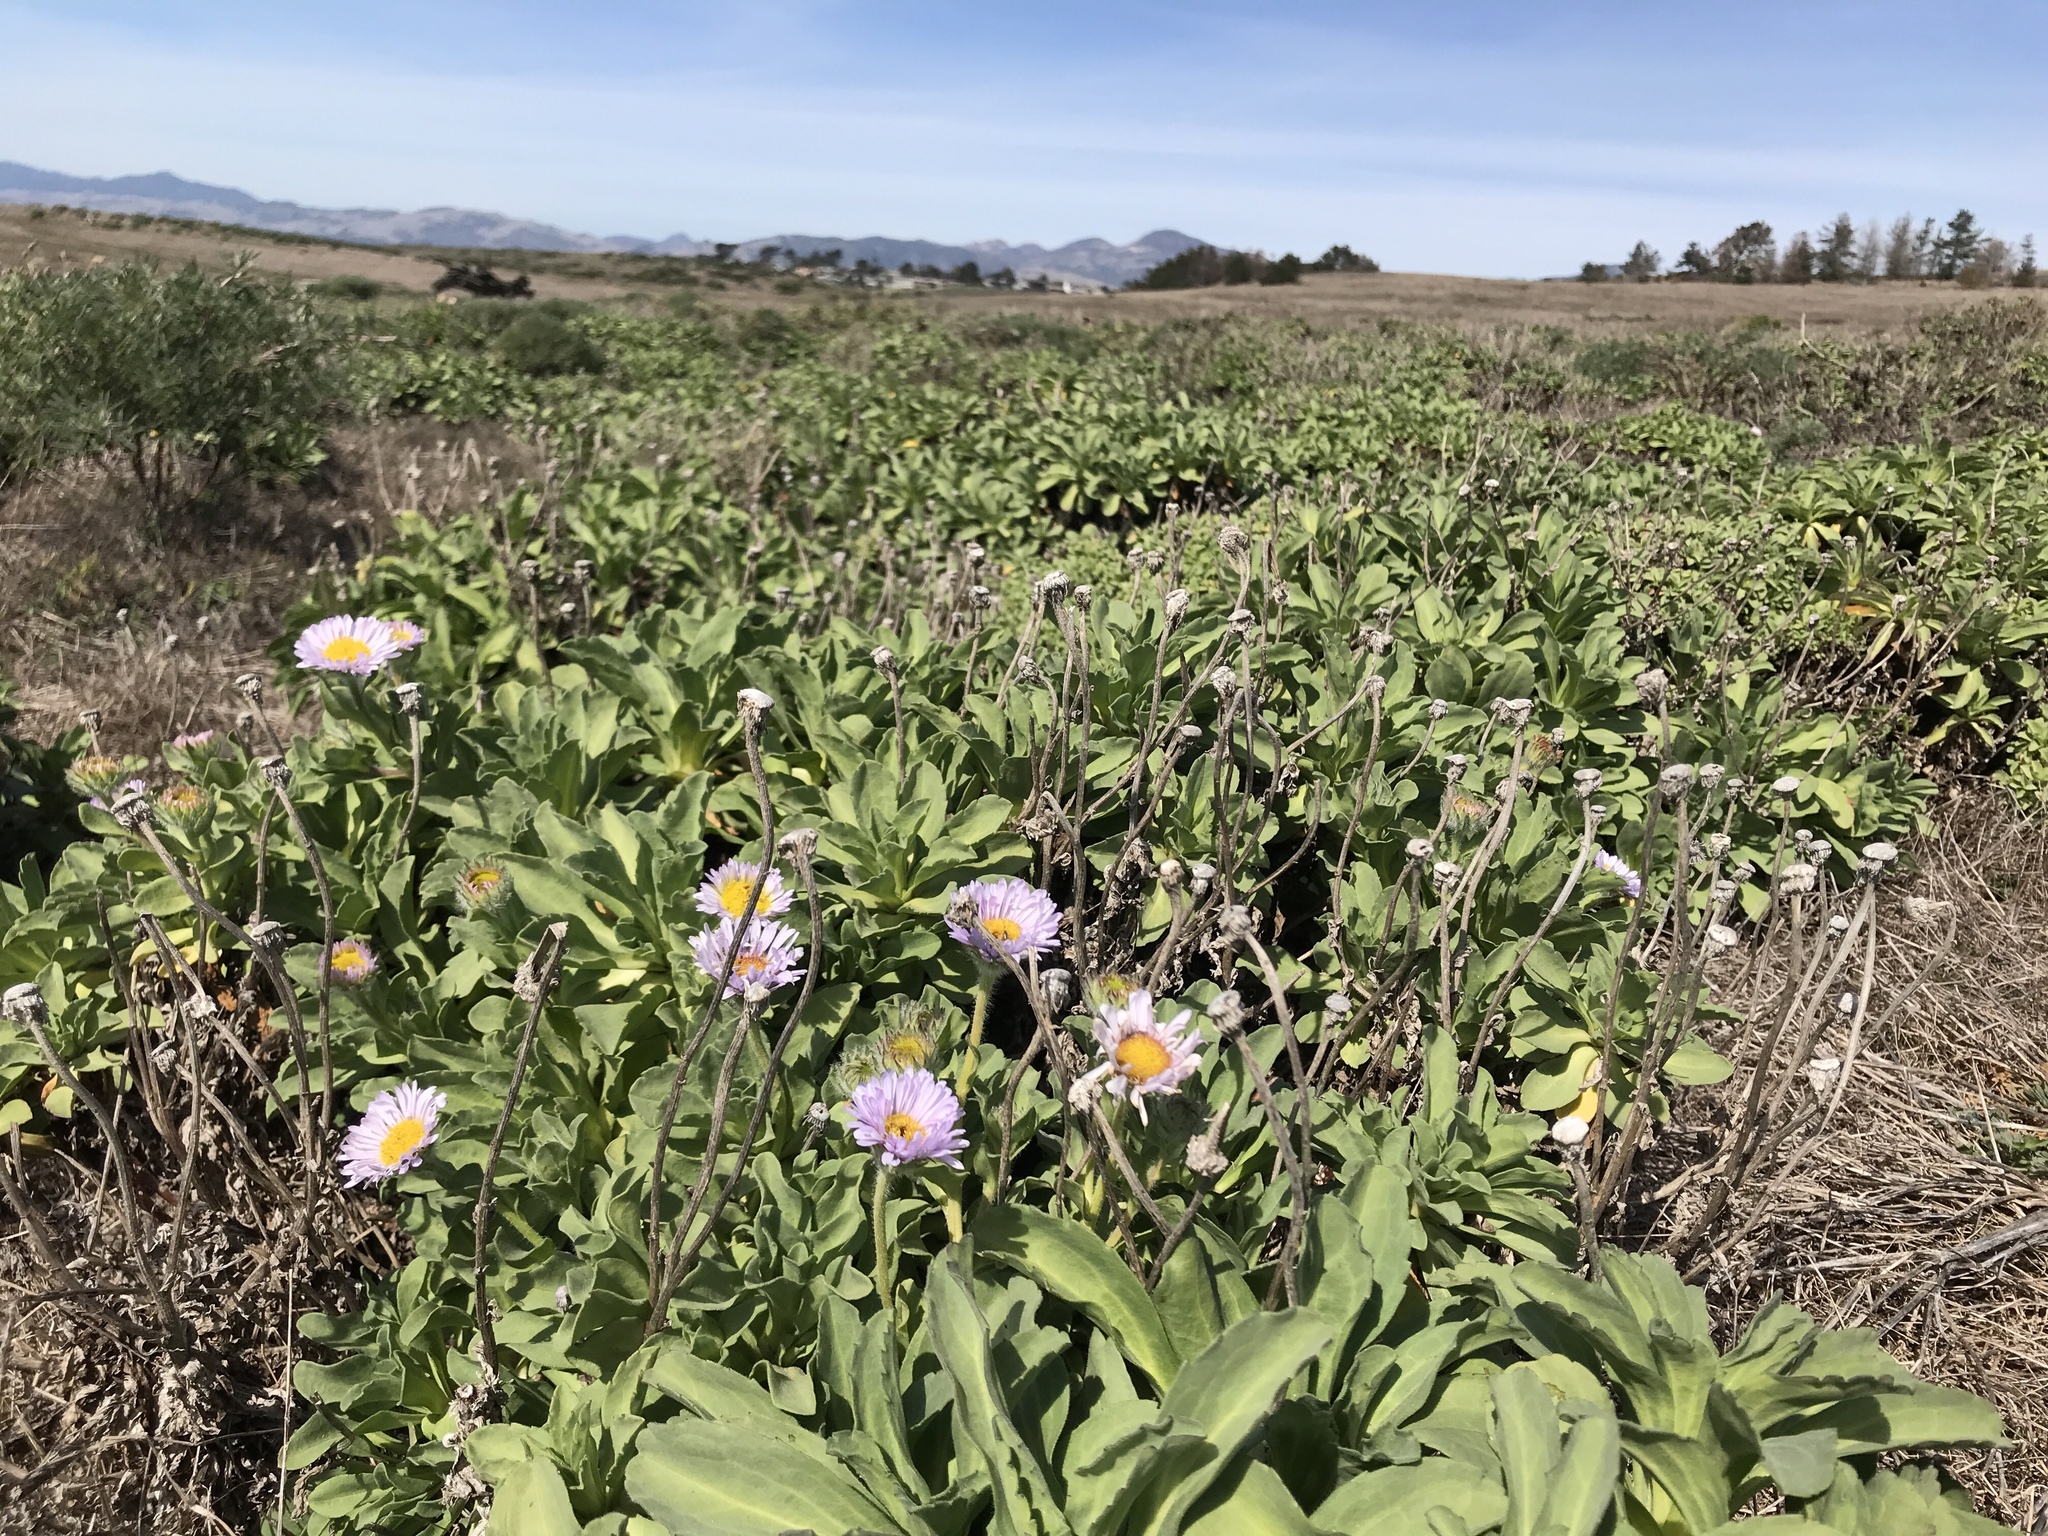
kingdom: Plantae
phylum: Tracheophyta
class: Magnoliopsida
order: Asterales
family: Asteraceae
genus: Erigeron
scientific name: Erigeron glaucus
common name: Seaside daisy
